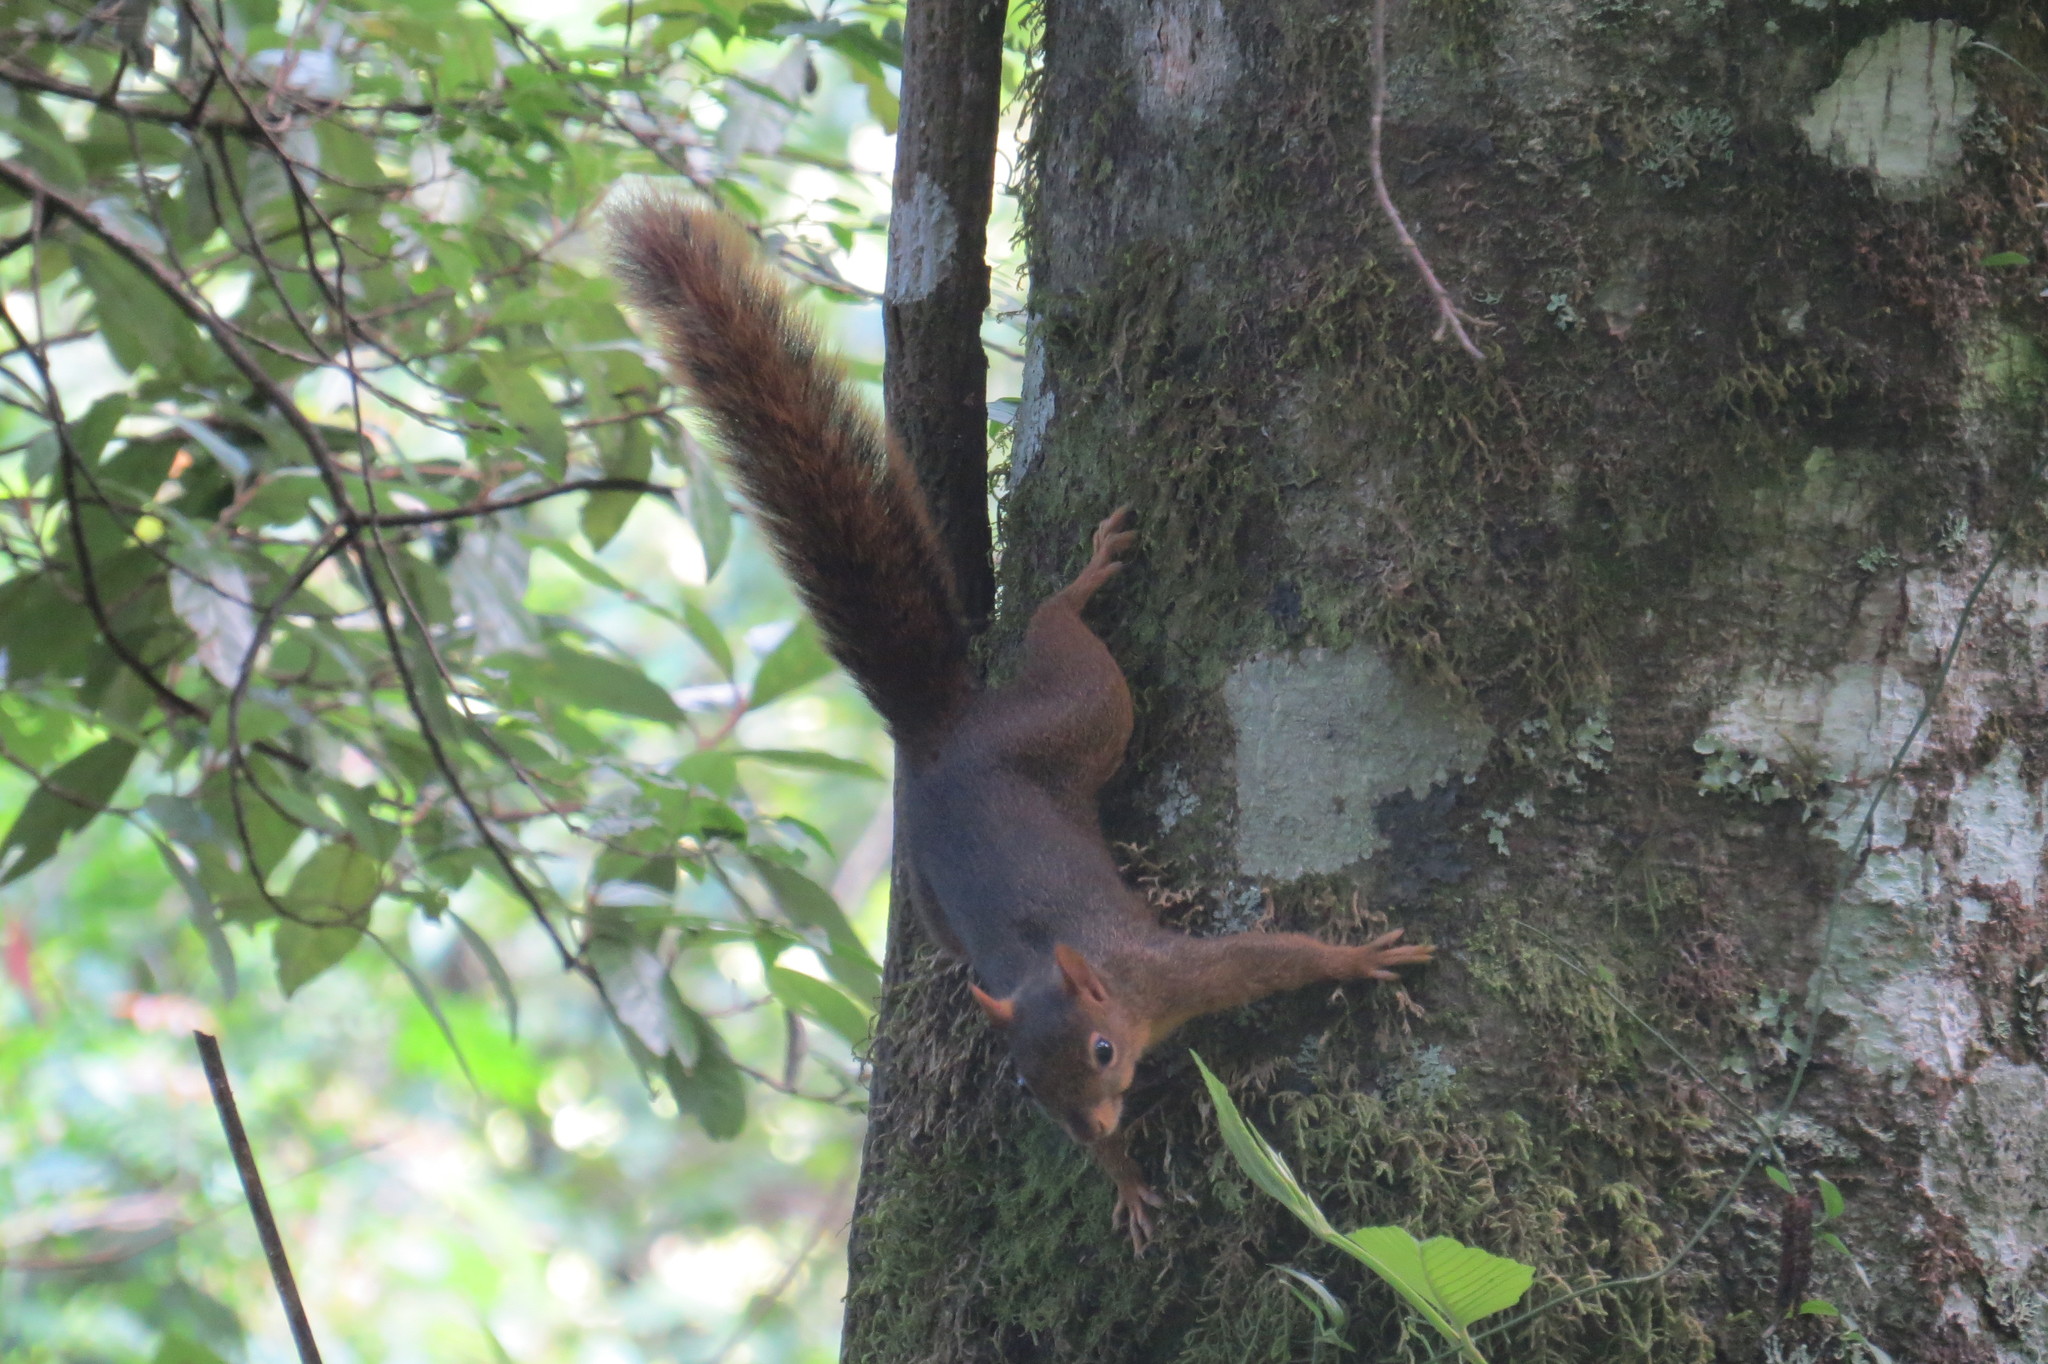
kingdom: Animalia
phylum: Chordata
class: Mammalia
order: Rodentia
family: Sciuridae
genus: Sciurus
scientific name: Sciurus ignitus
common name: Bolivian squirrel
